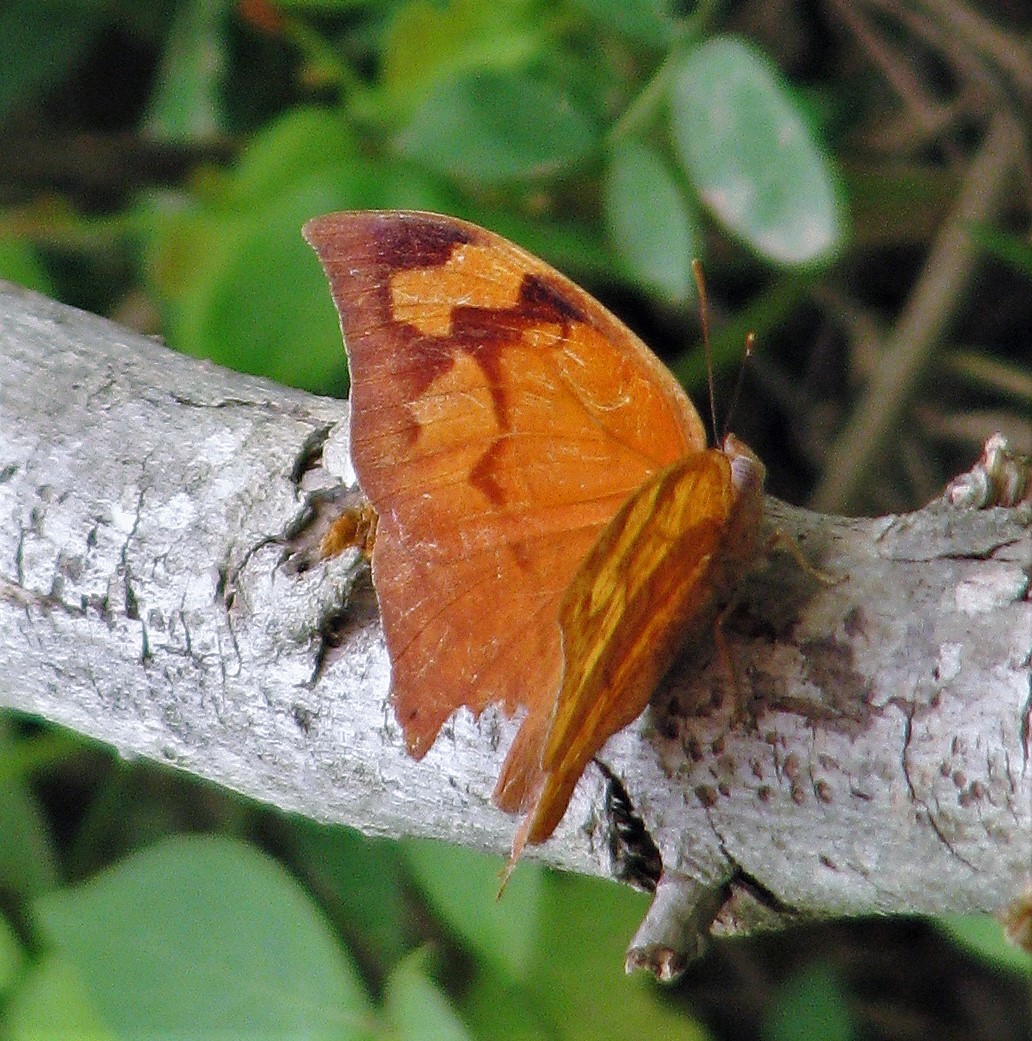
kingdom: Animalia
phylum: Arthropoda
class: Insecta
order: Lepidoptera
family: Nymphalidae
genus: Fountainea
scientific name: Fountainea
